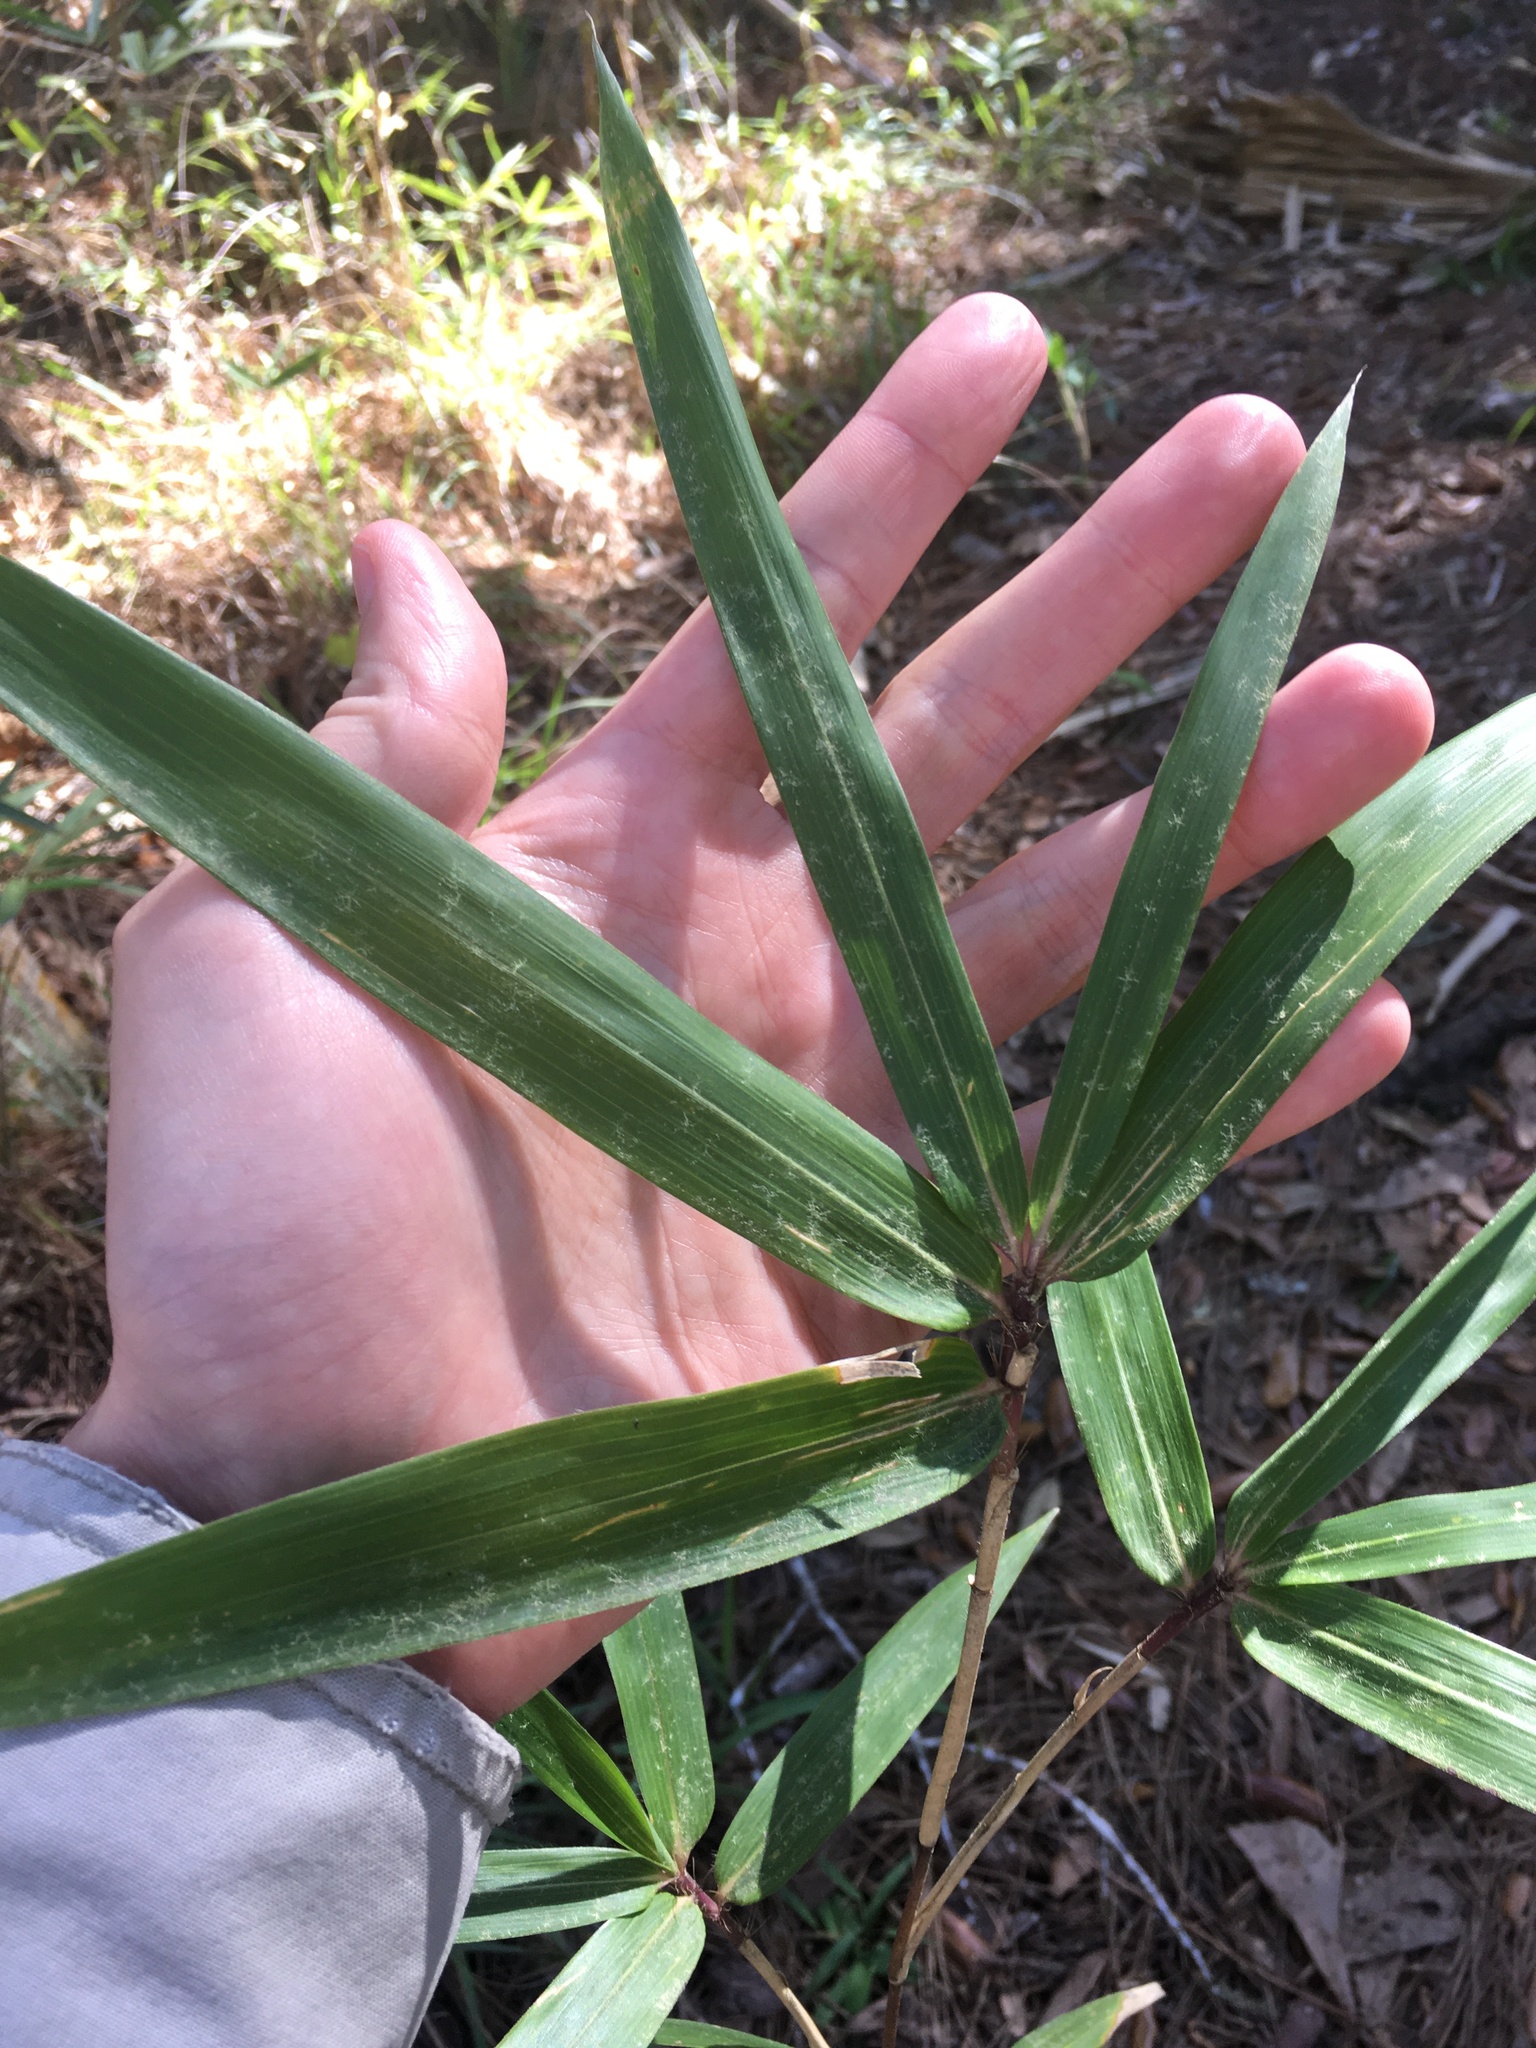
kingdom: Plantae
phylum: Tracheophyta
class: Liliopsida
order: Poales
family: Poaceae
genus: Arundinaria
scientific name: Arundinaria tecta
